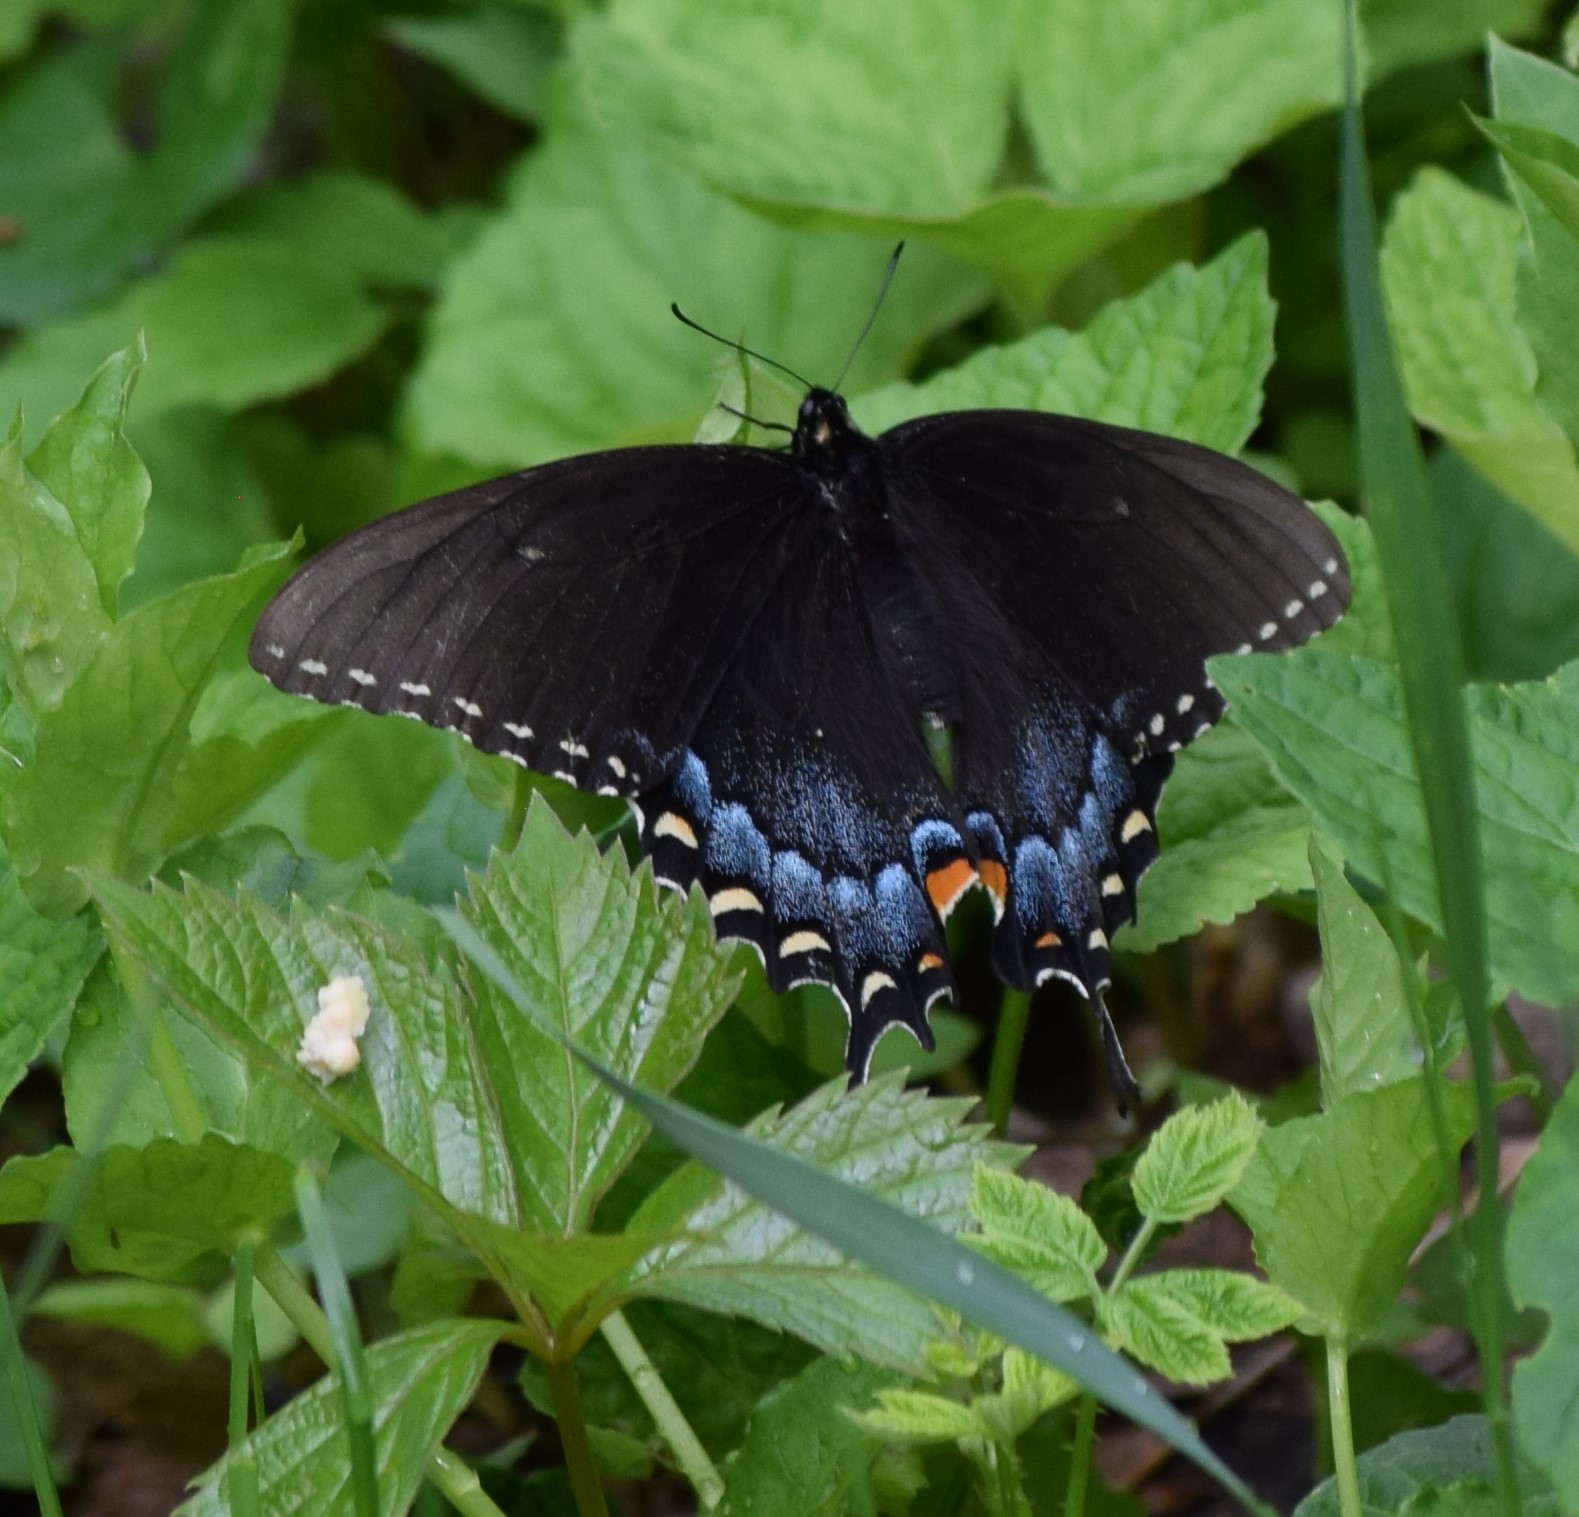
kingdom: Animalia
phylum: Arthropoda
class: Insecta
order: Lepidoptera
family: Papilionidae
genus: Papilio
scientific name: Papilio glaucus
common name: Tiger swallowtail
